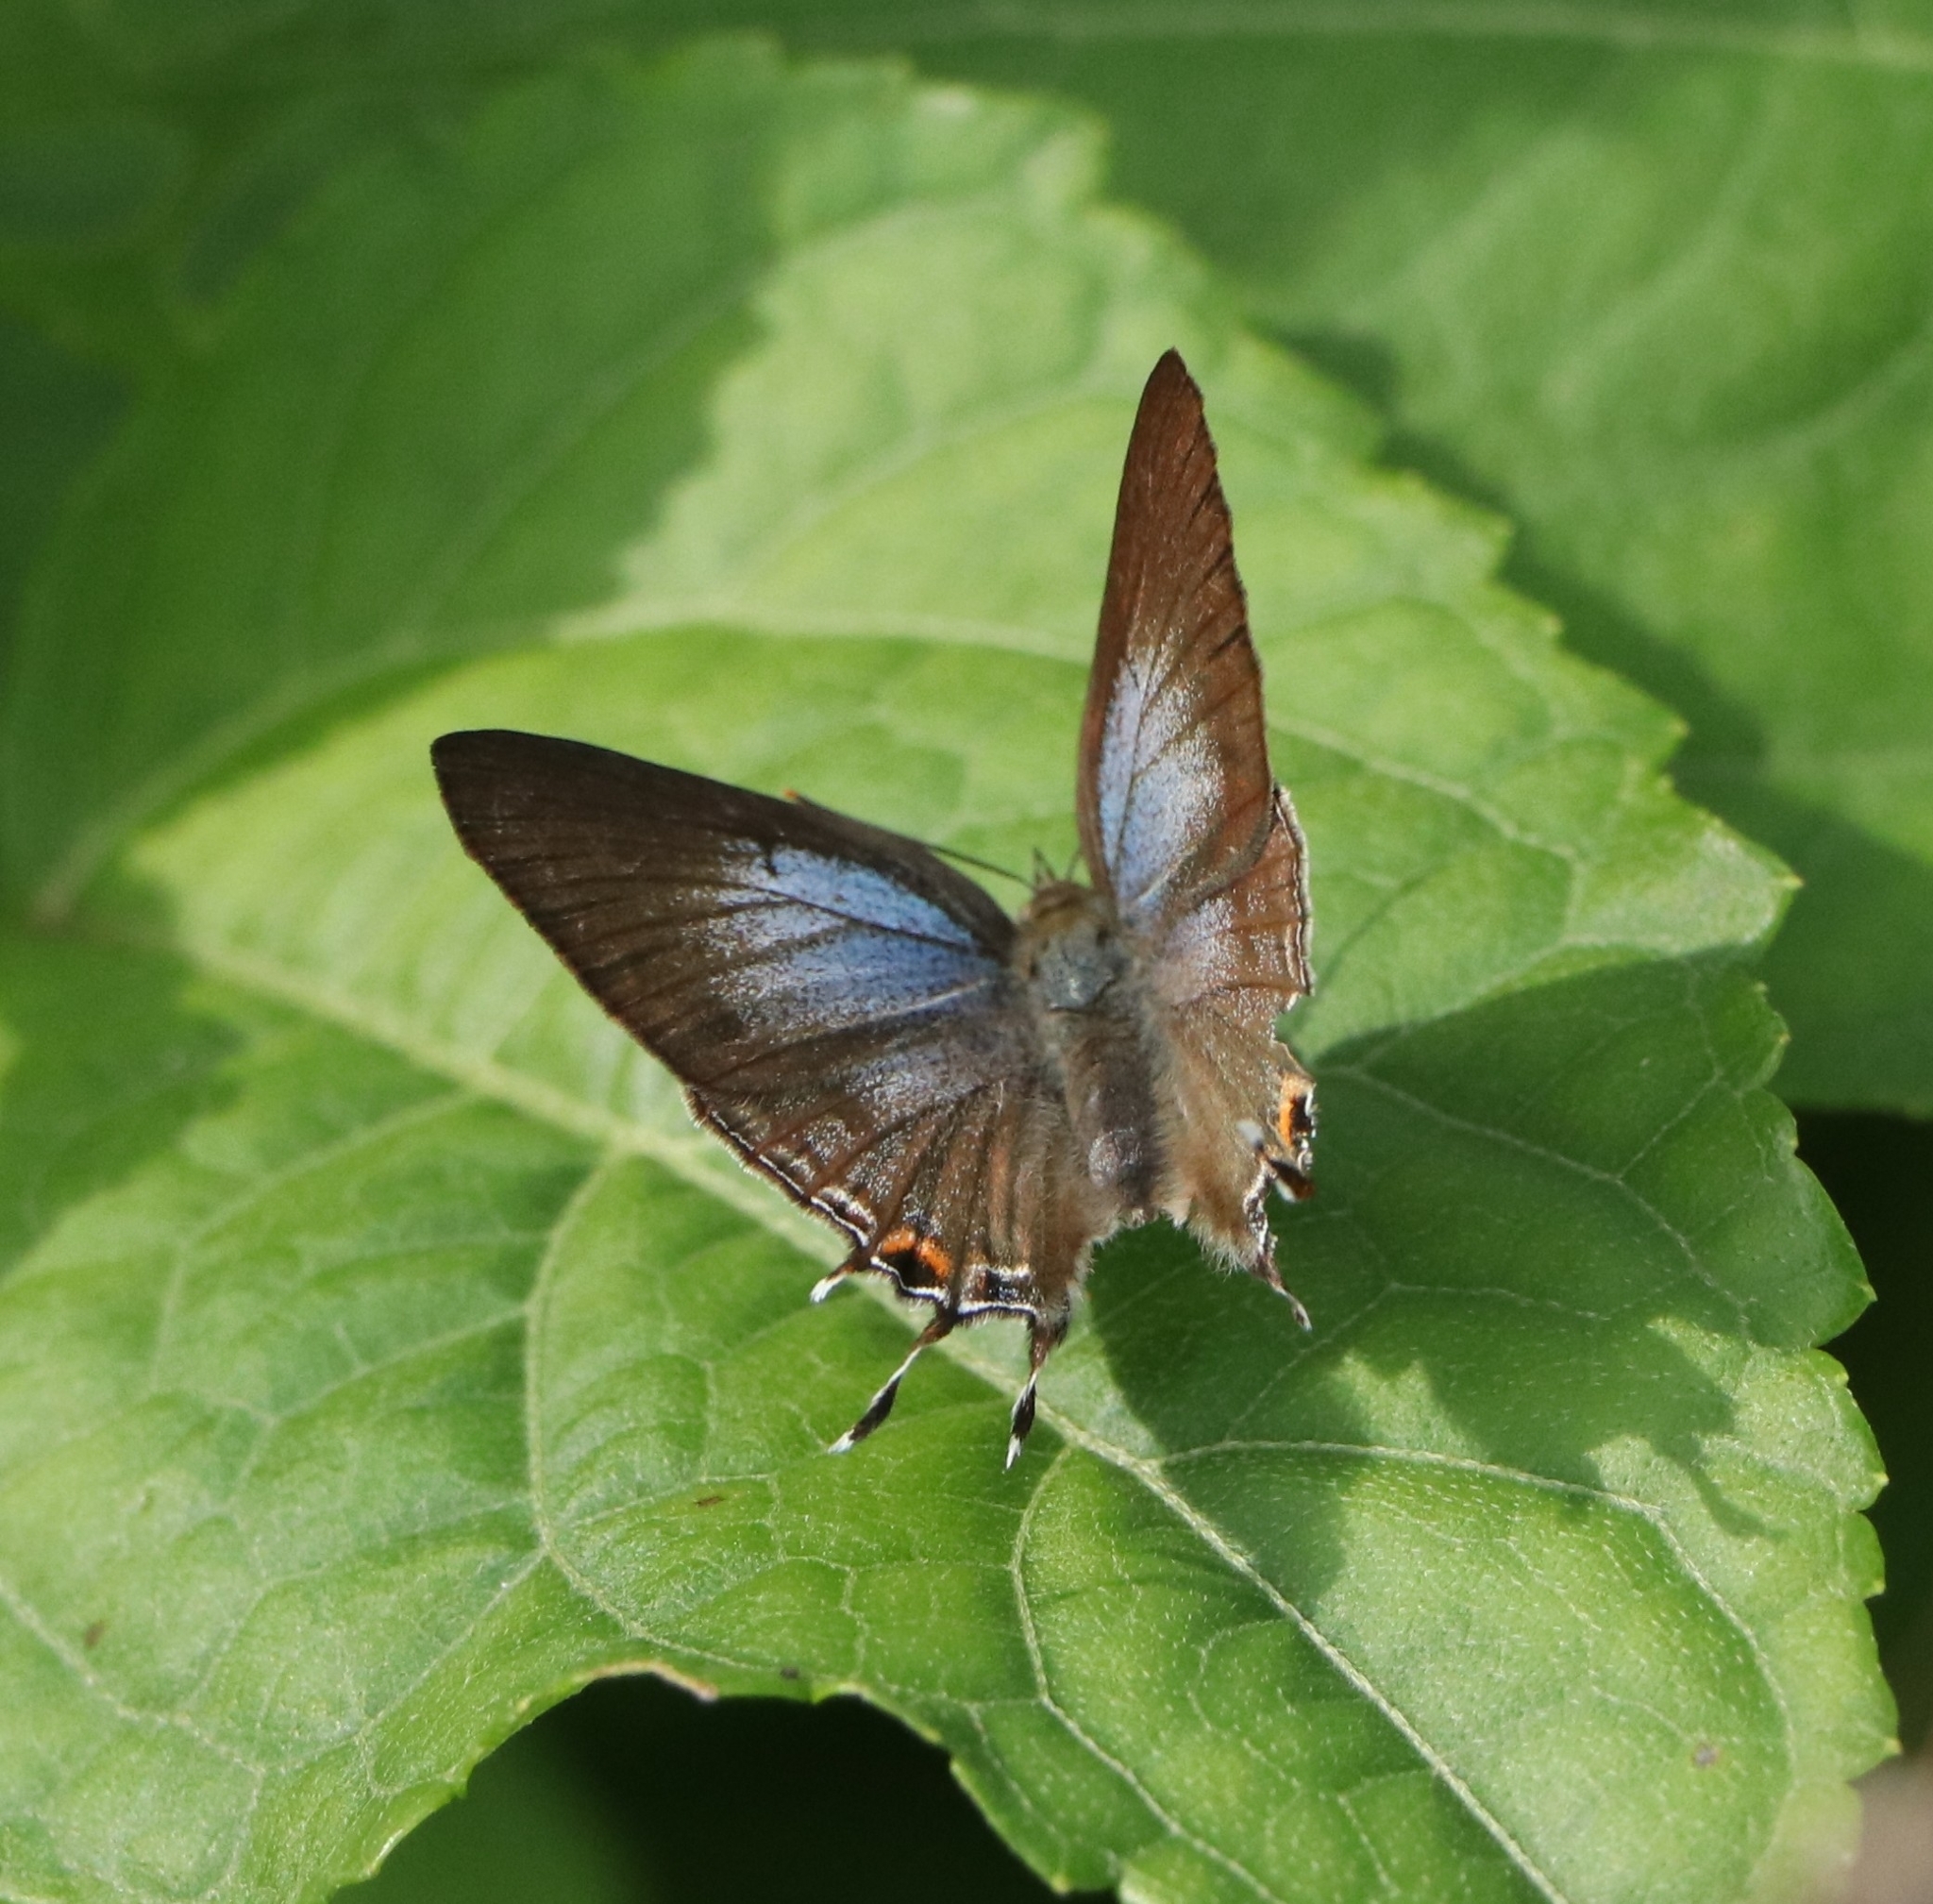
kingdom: Animalia
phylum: Arthropoda
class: Insecta
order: Lepidoptera
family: Lycaenidae
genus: Zesius
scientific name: Zesius chrysomallus
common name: Redspot
